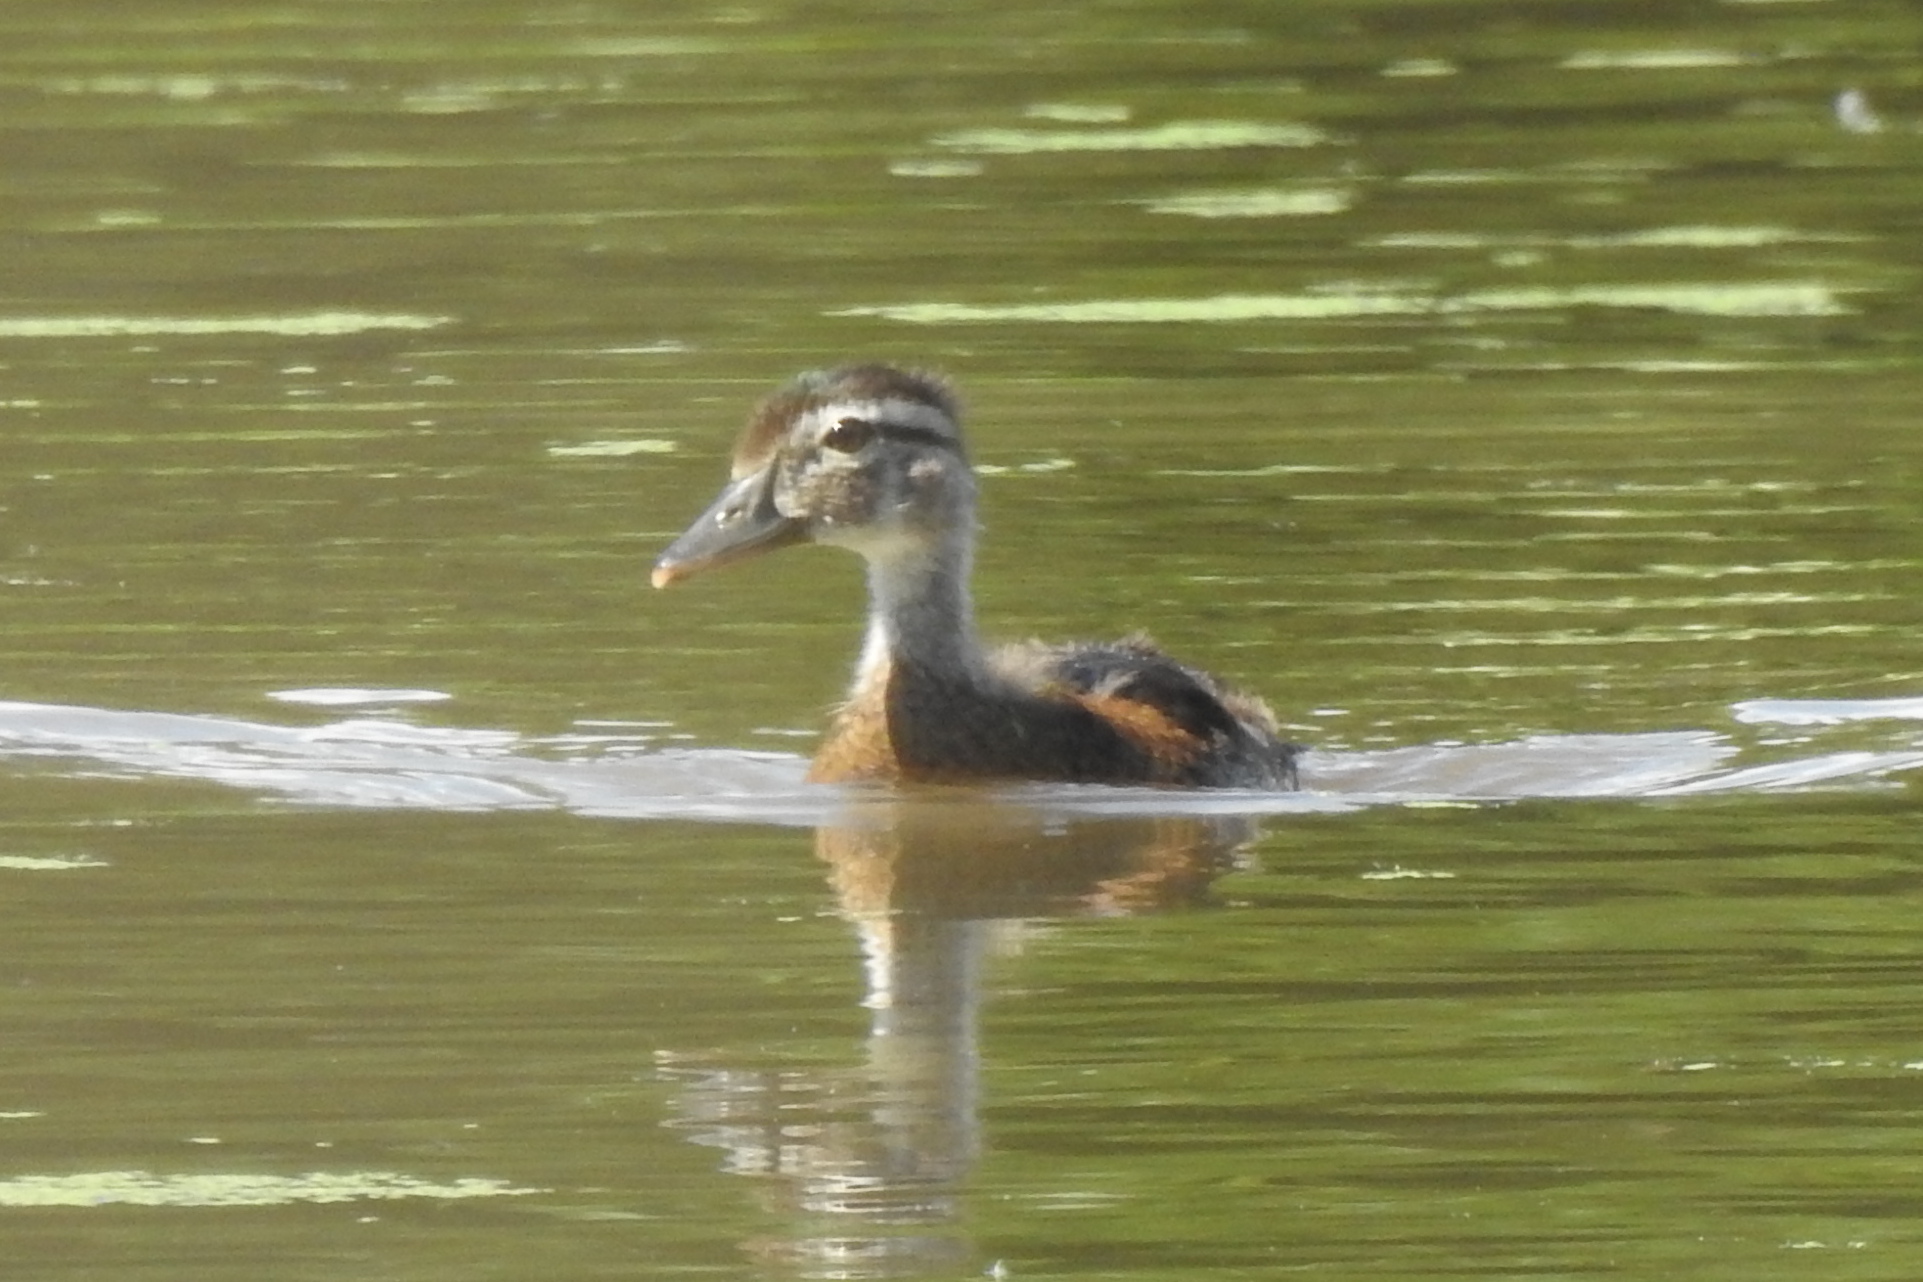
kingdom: Animalia
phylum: Chordata
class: Aves
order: Anseriformes
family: Anatidae
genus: Aix
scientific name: Aix sponsa
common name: Wood duck
